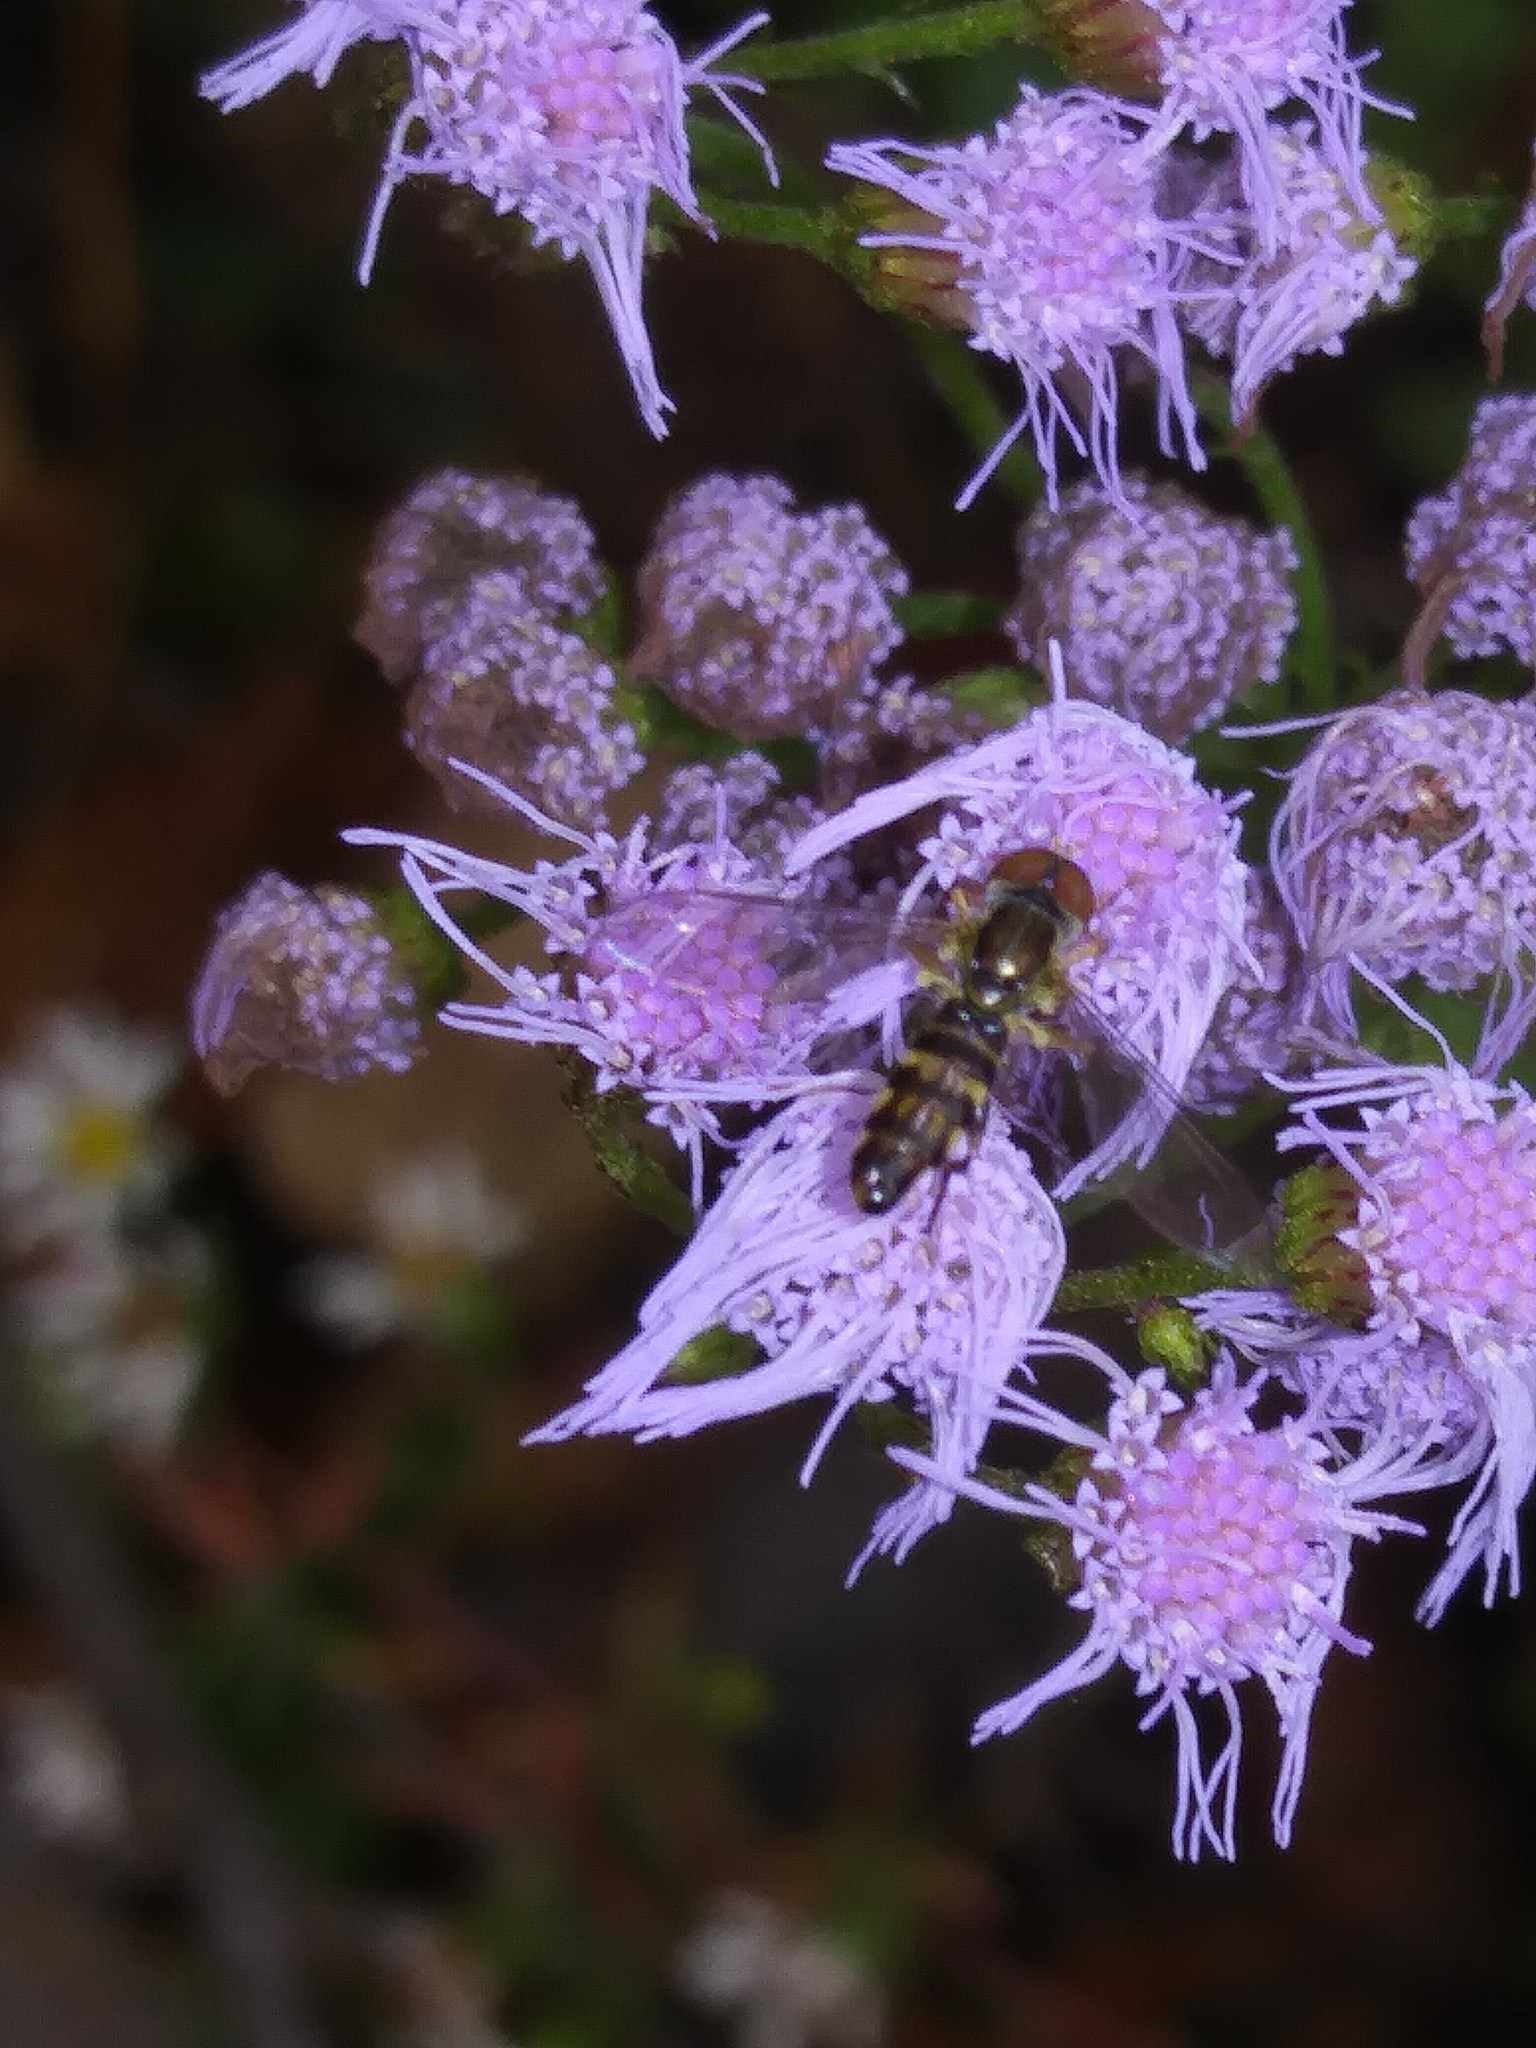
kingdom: Plantae
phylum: Tracheophyta
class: Magnoliopsida
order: Asterales
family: Asteraceae
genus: Conoclinium
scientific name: Conoclinium coelestinum
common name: Blue mistflower
